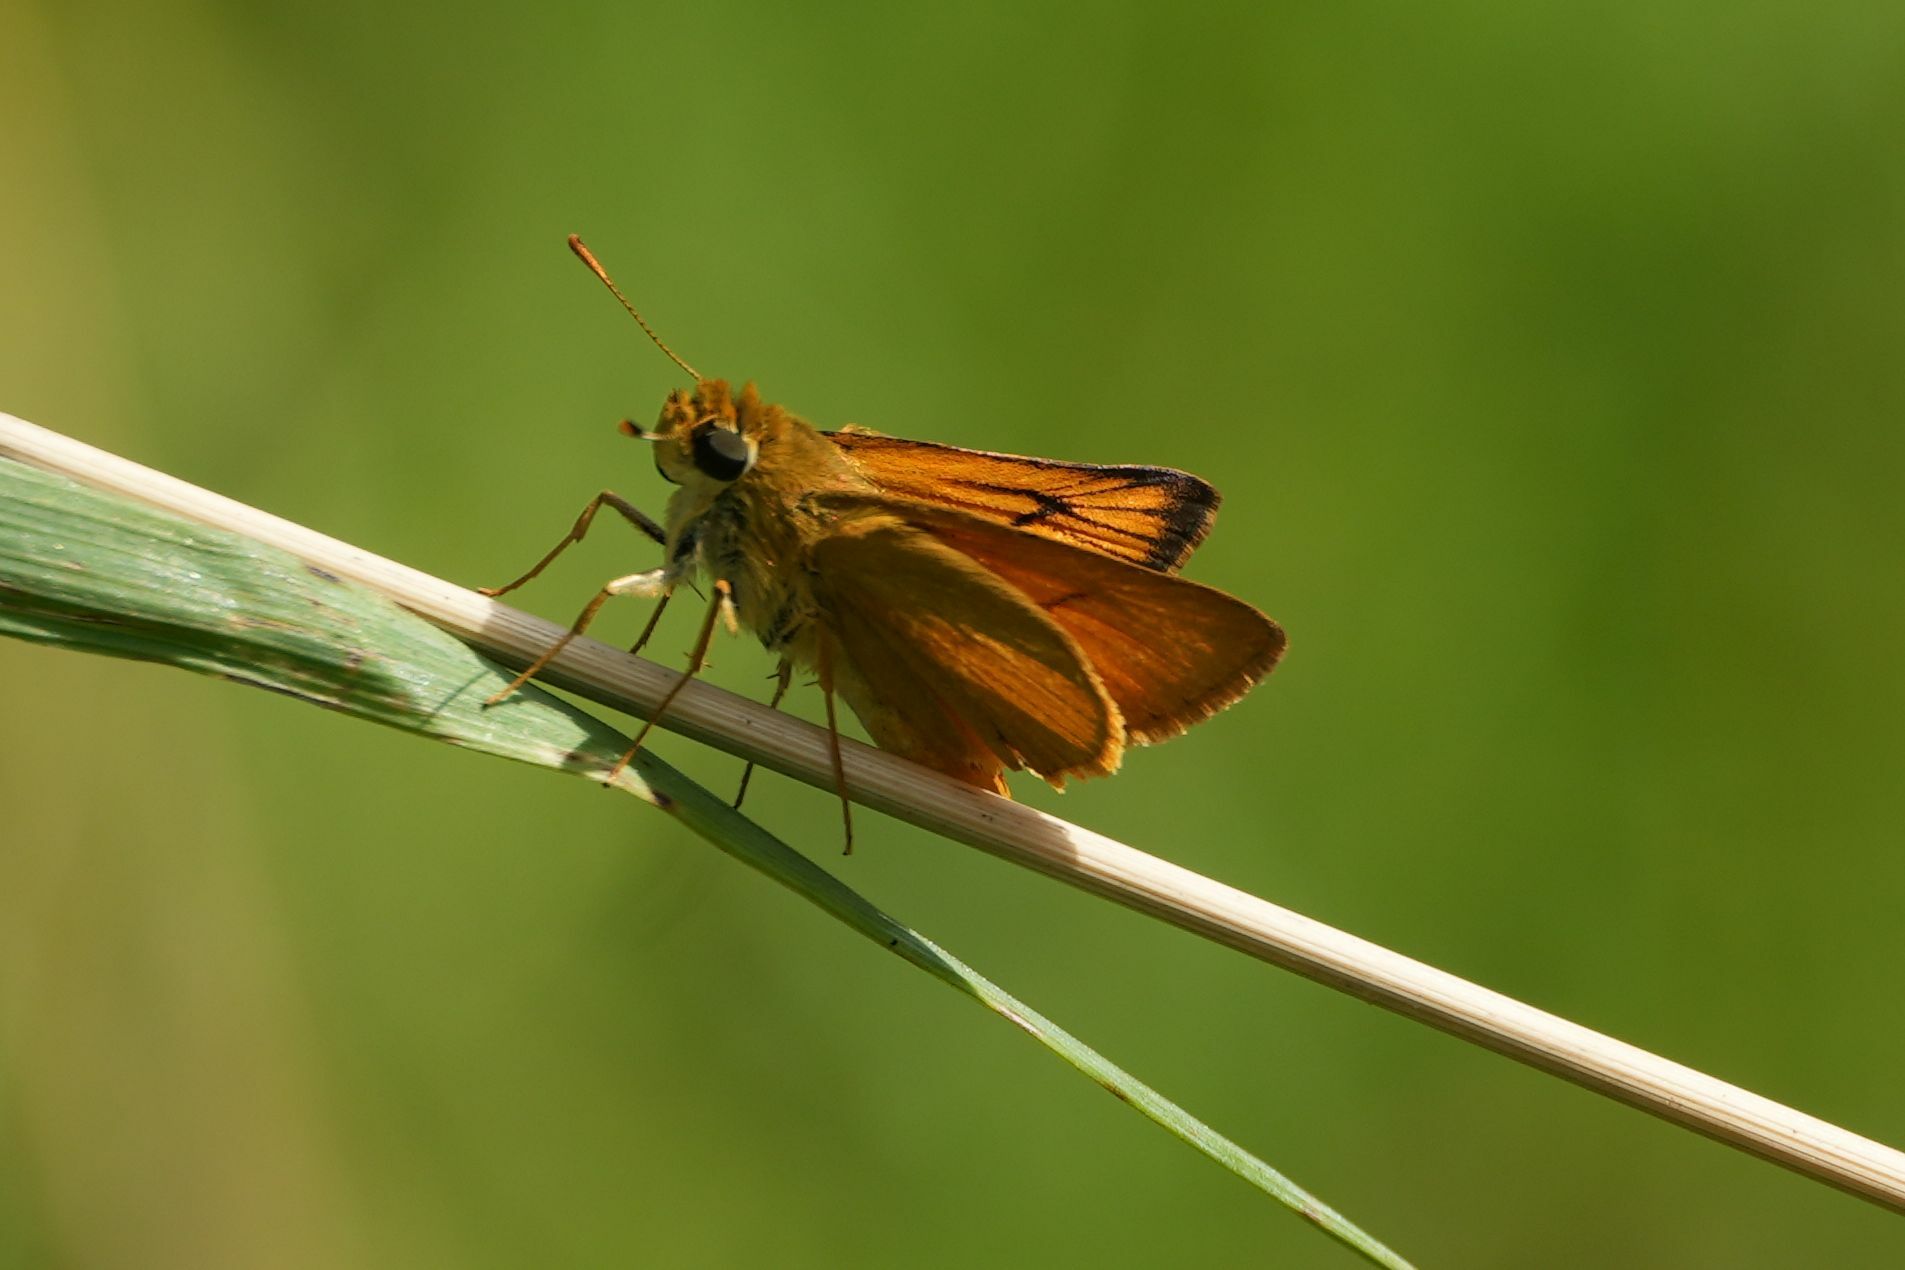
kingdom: Animalia
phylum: Arthropoda
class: Insecta
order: Lepidoptera
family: Hesperiidae
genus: Atrytone
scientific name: Atrytone delaware
